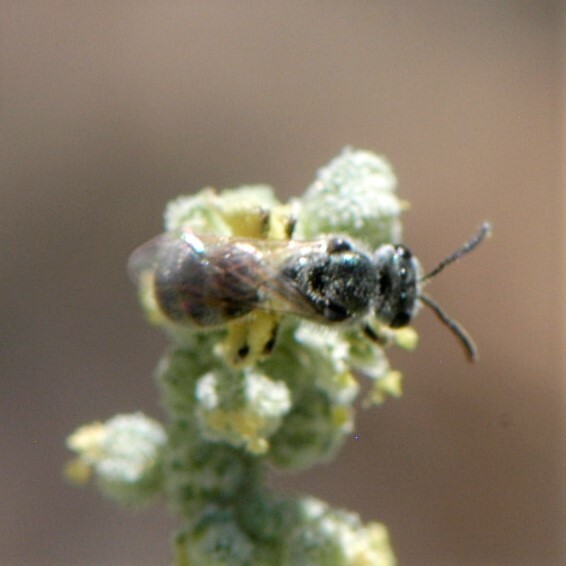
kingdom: Animalia
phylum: Arthropoda
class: Insecta
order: Hymenoptera
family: Halictidae
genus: Dialictus
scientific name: Dialictus
